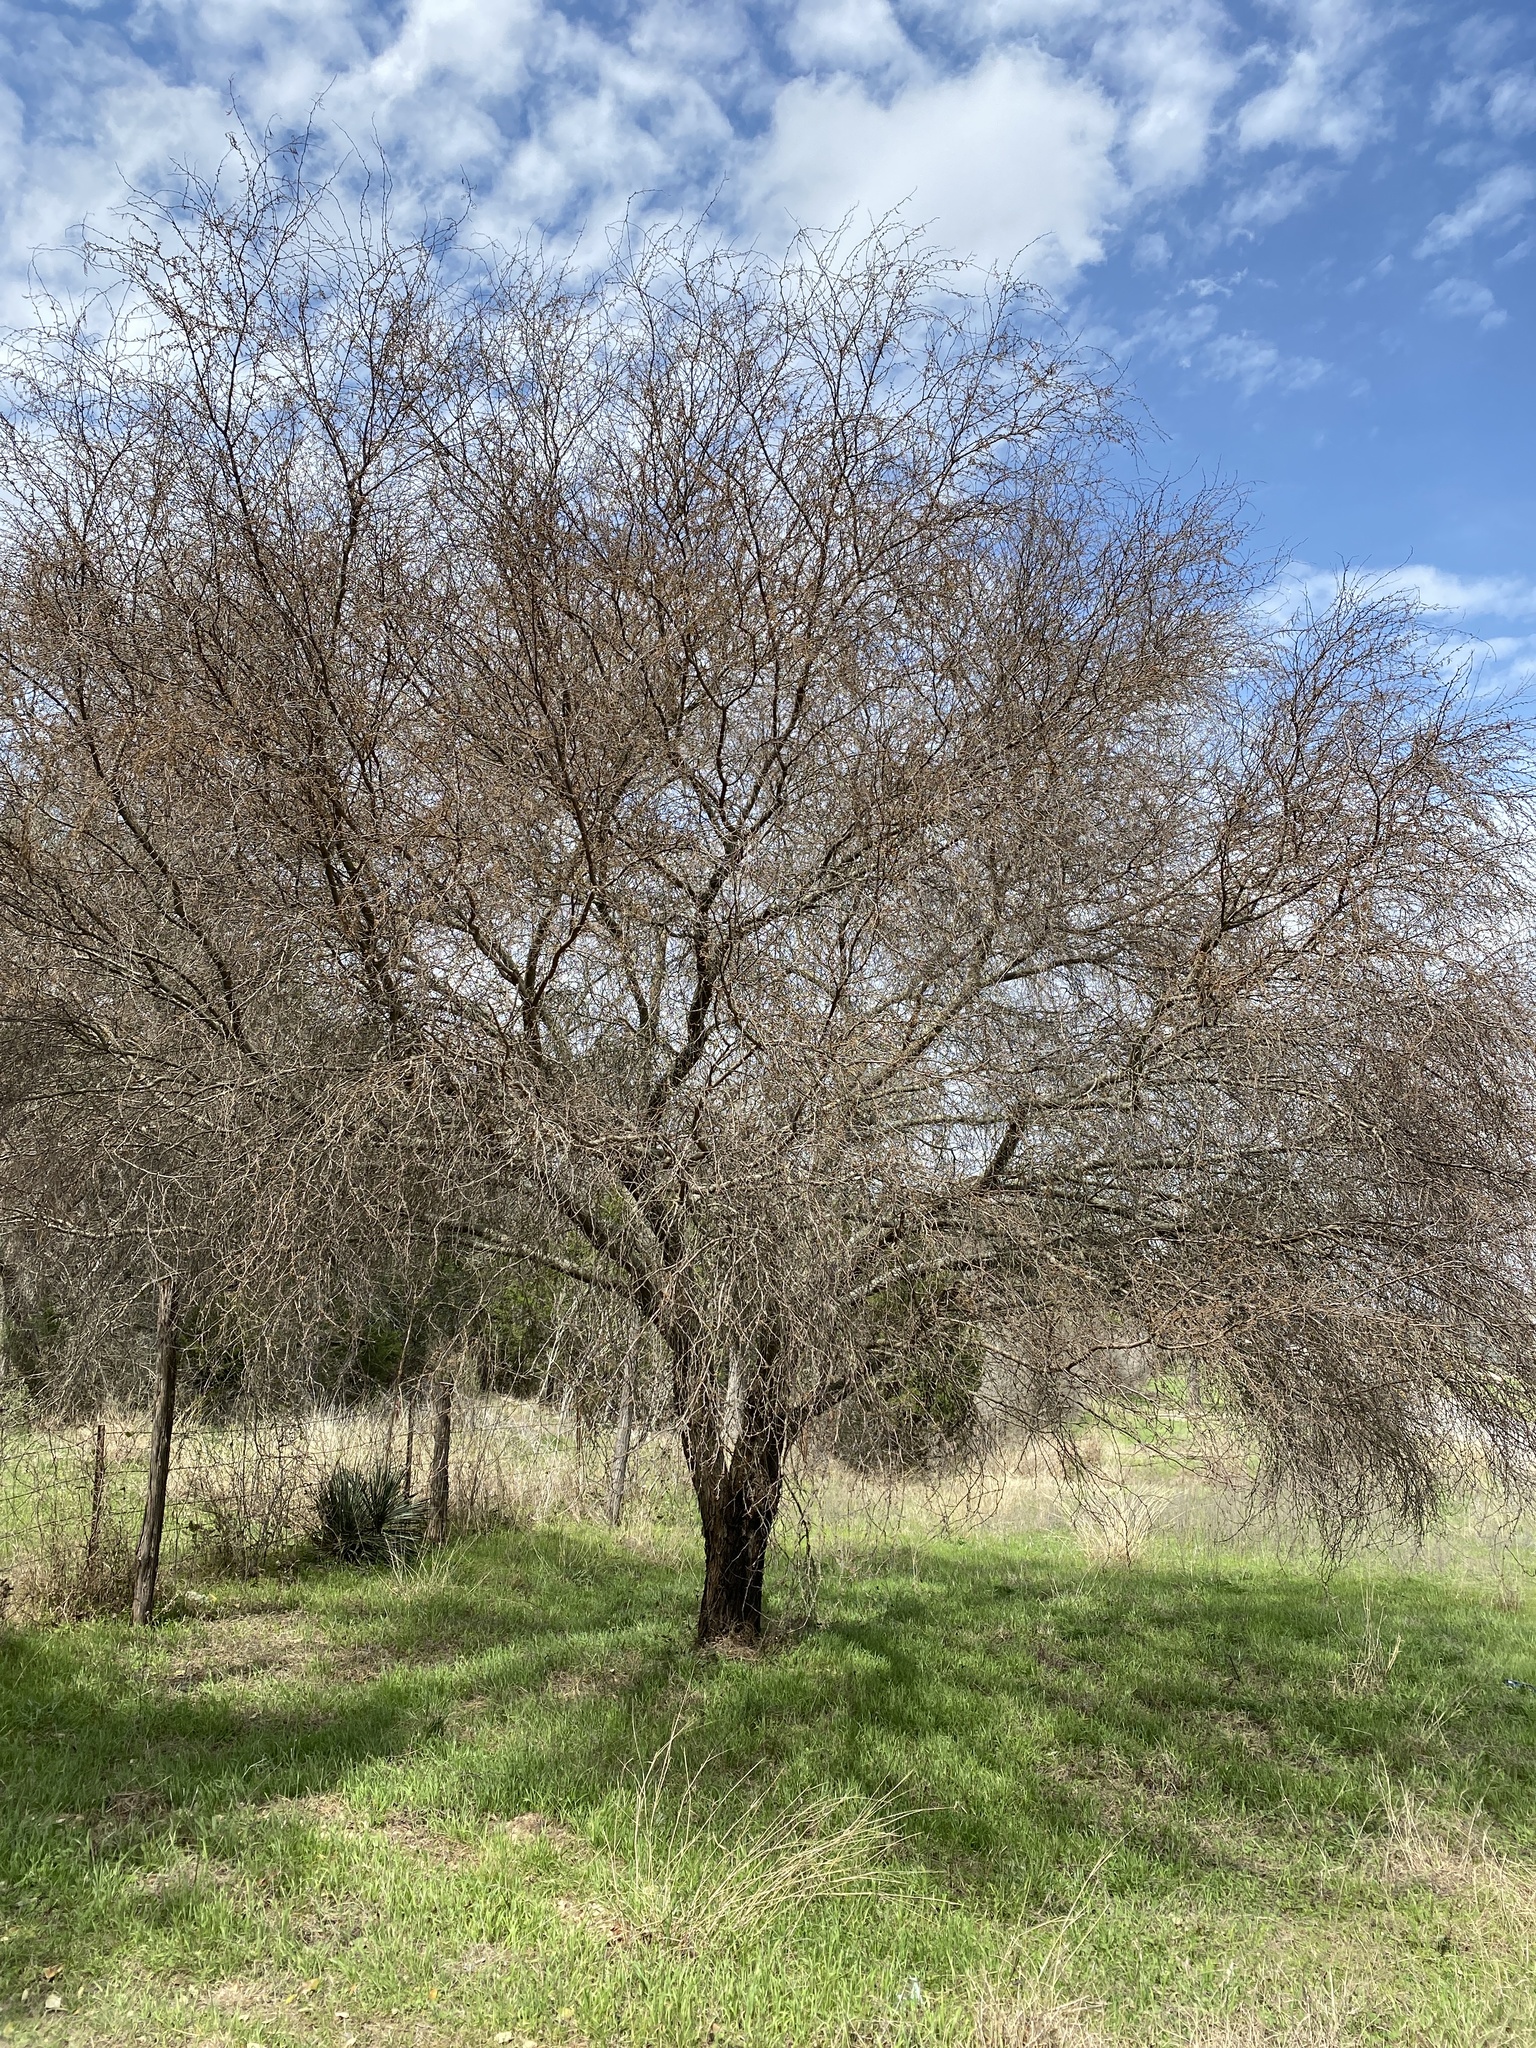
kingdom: Plantae
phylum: Tracheophyta
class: Magnoliopsida
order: Fabales
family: Fabaceae
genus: Vachellia
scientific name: Vachellia farnesiana
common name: Sweet acacia
